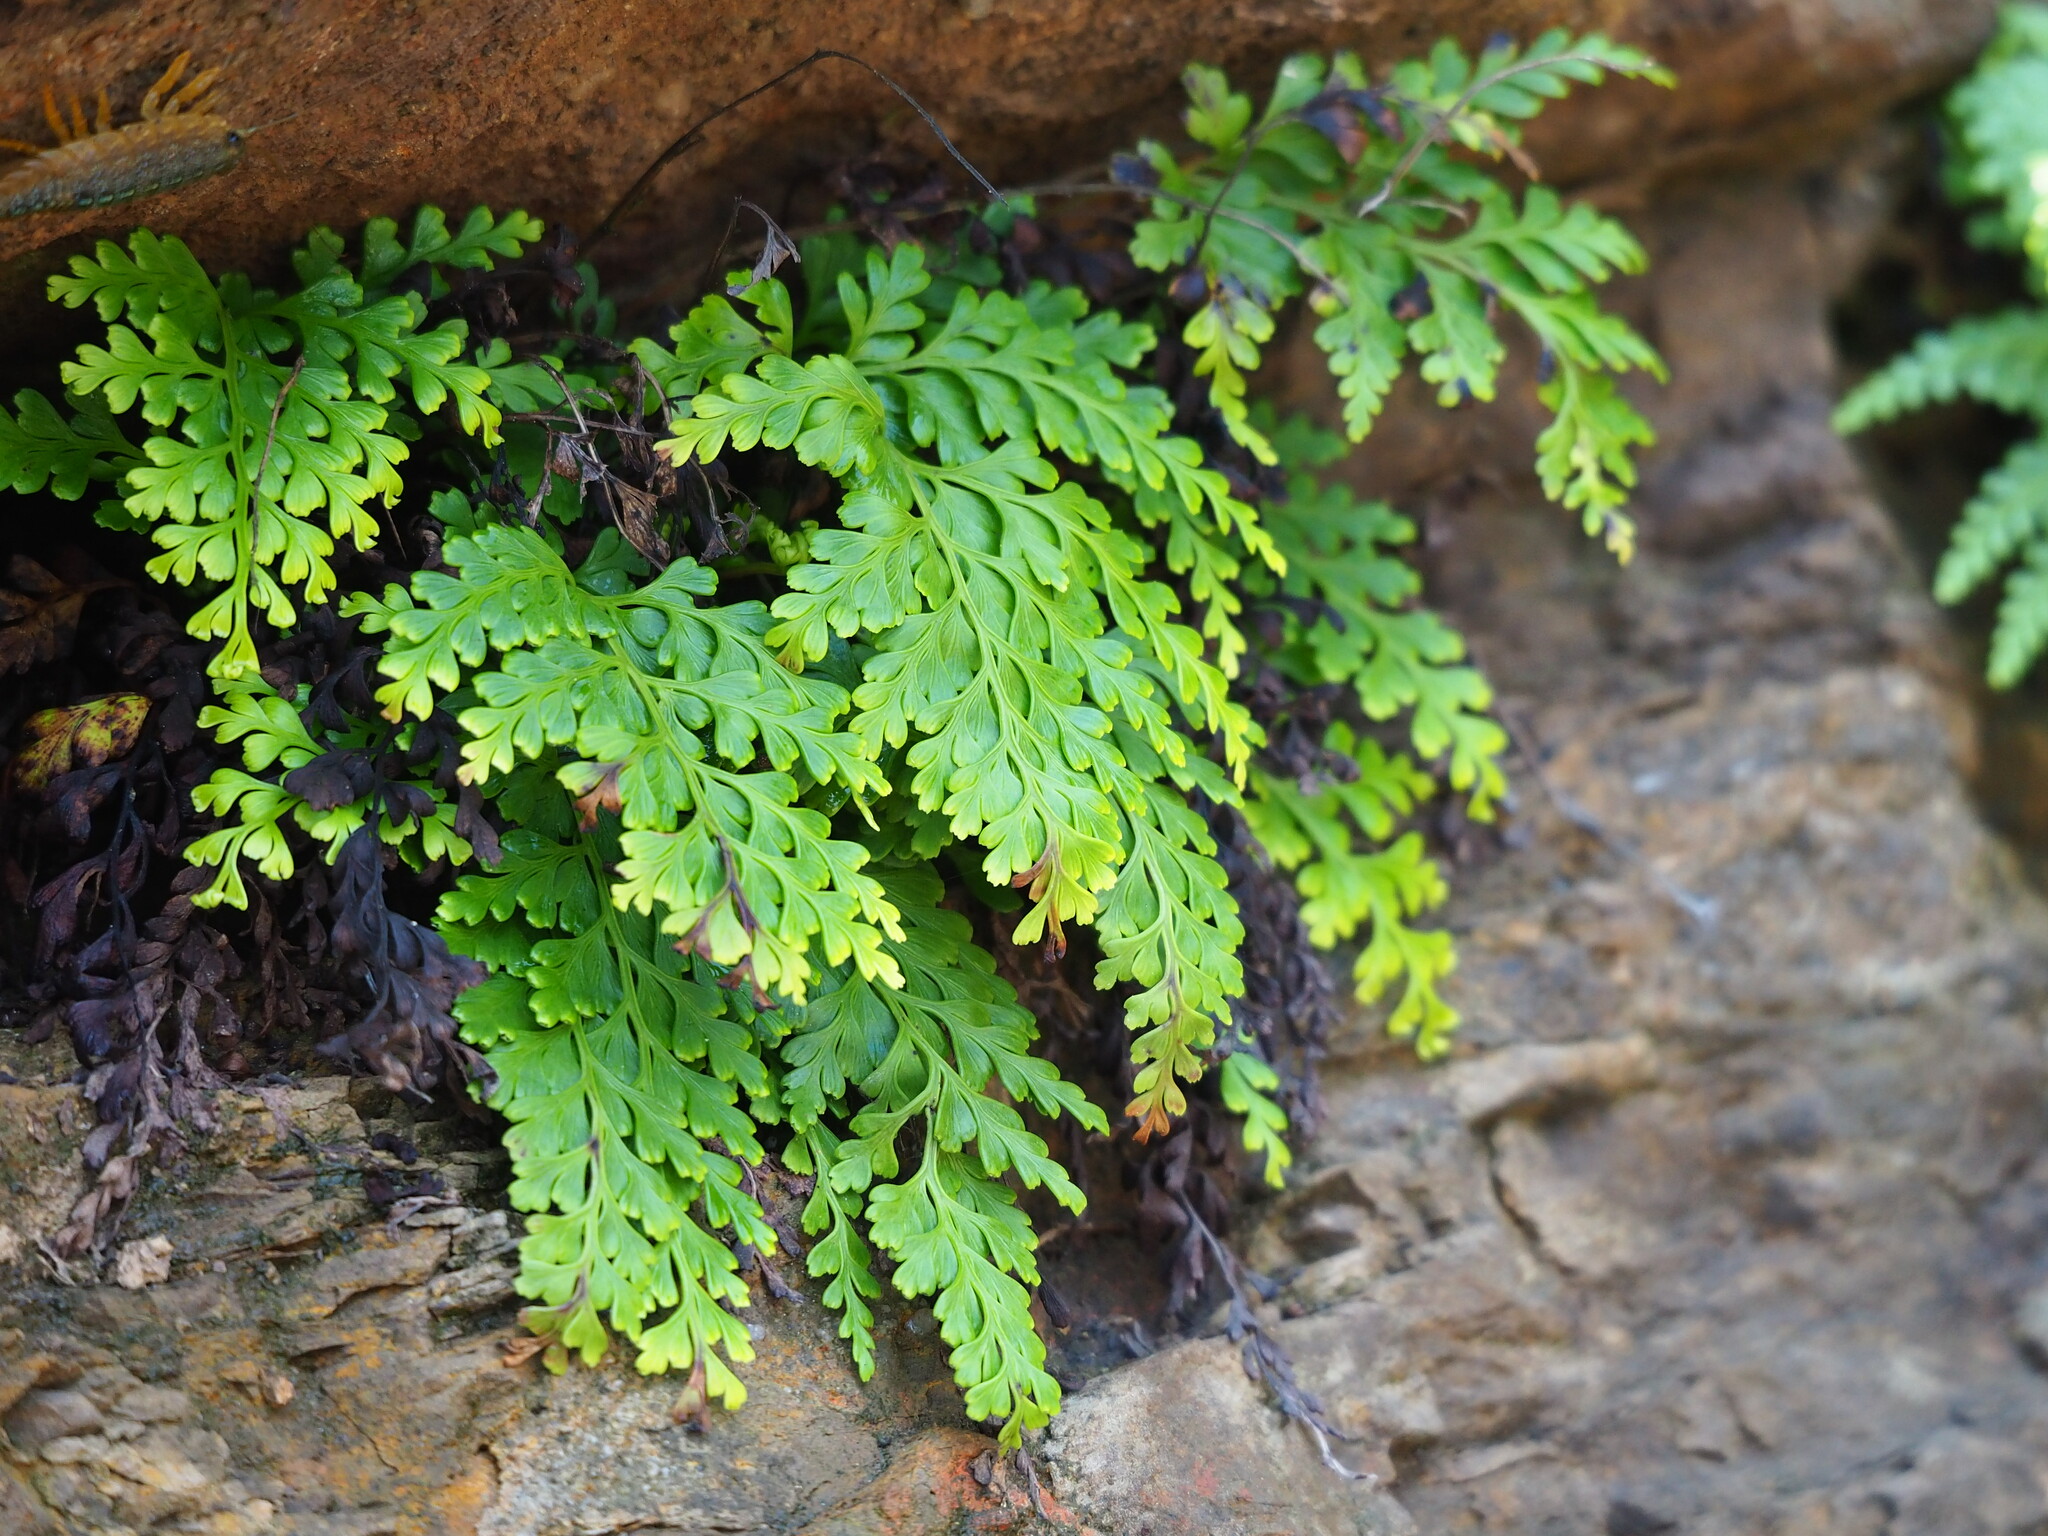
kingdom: Plantae
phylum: Tracheophyta
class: Polypodiopsida
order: Polypodiales
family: Lindsaeaceae
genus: Odontosoria
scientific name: Odontosoria biflora
